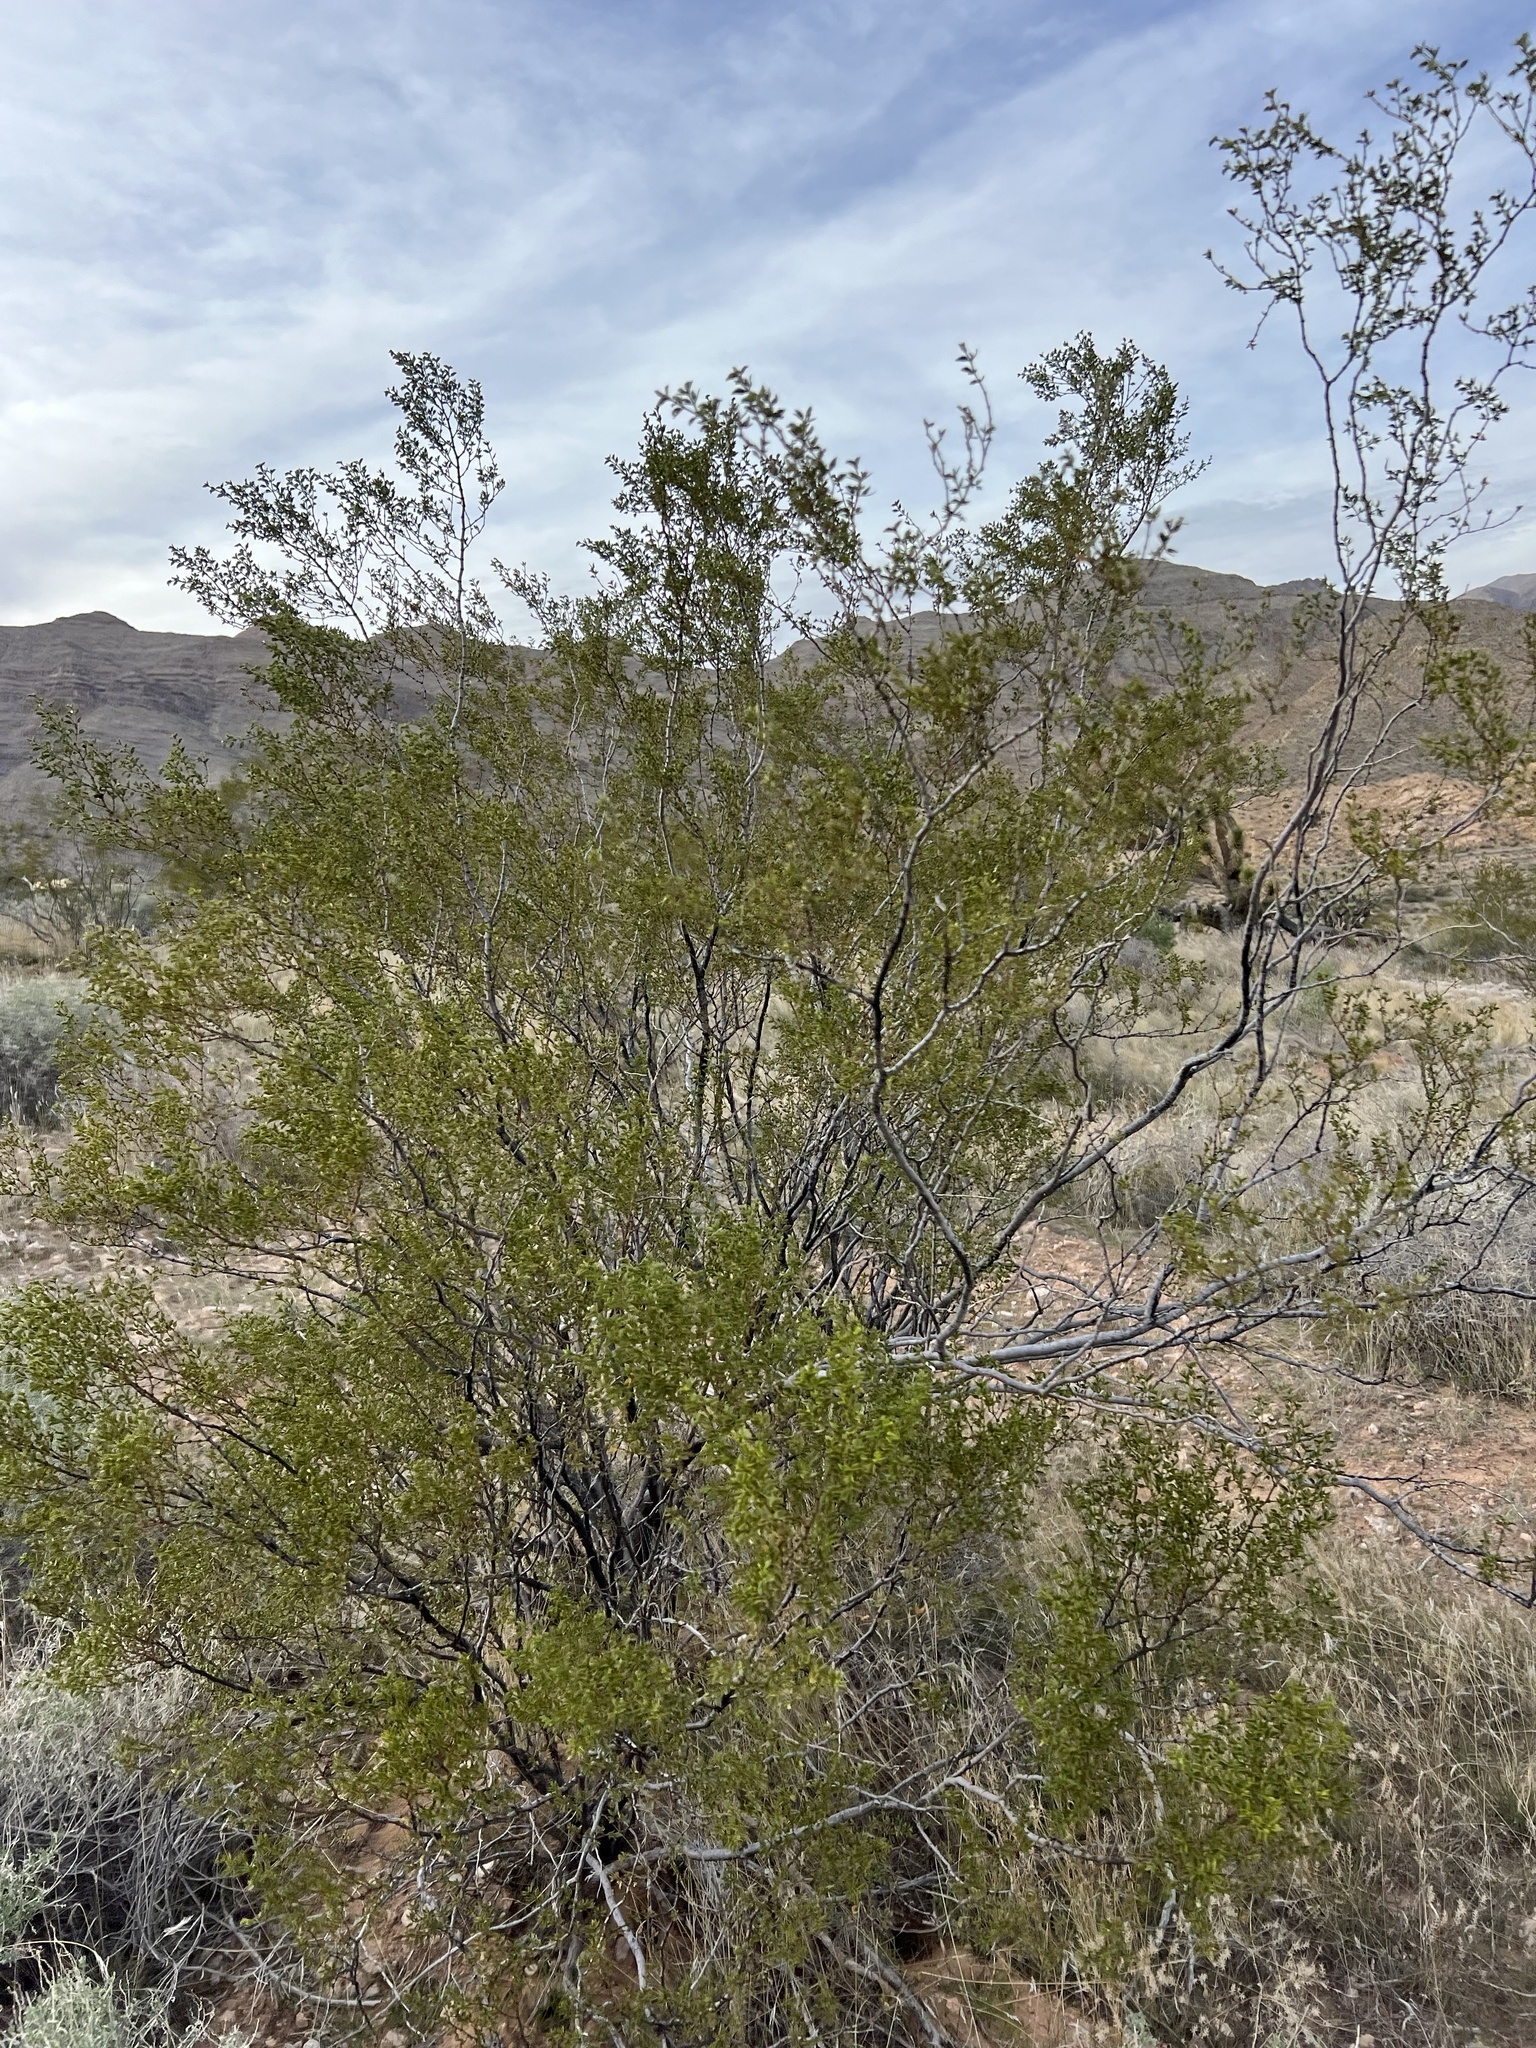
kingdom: Plantae
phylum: Tracheophyta
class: Magnoliopsida
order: Zygophyllales
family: Zygophyllaceae
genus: Larrea
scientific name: Larrea tridentata
